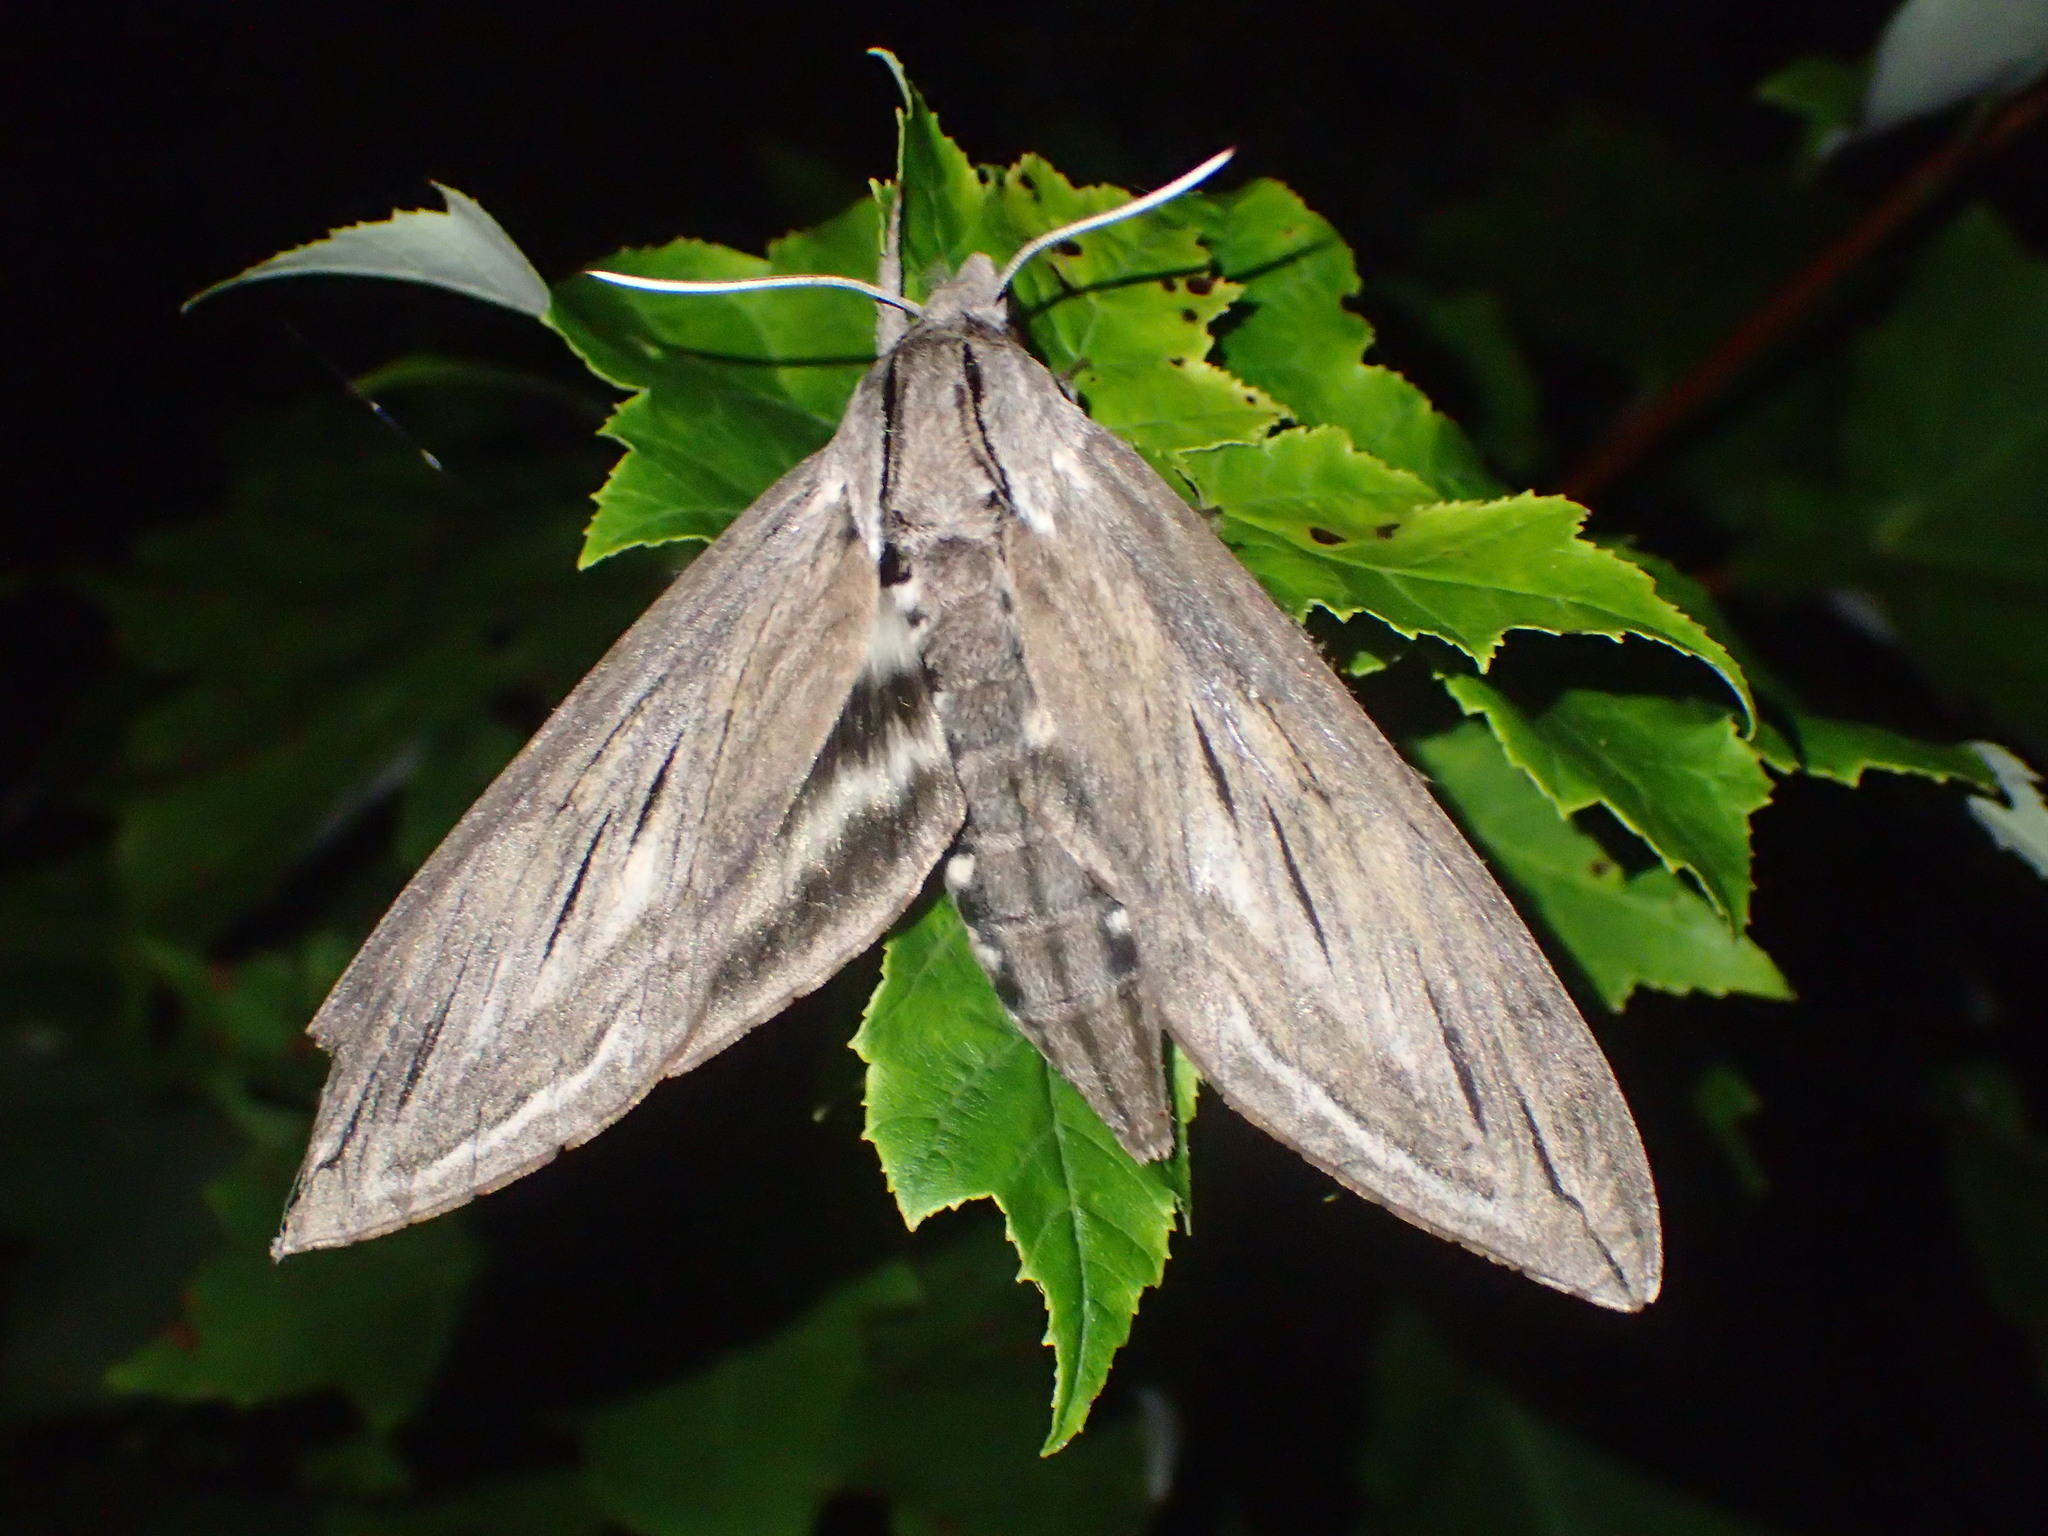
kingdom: Animalia
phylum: Arthropoda
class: Insecta
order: Lepidoptera
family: Sphingidae
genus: Sphinx
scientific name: Sphinx chersis
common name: Great ash sphinx
